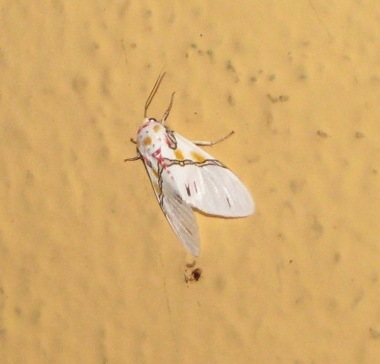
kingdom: Animalia
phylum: Arthropoda
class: Insecta
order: Lepidoptera
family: Erebidae
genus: Idalus
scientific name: Idalus crinis
